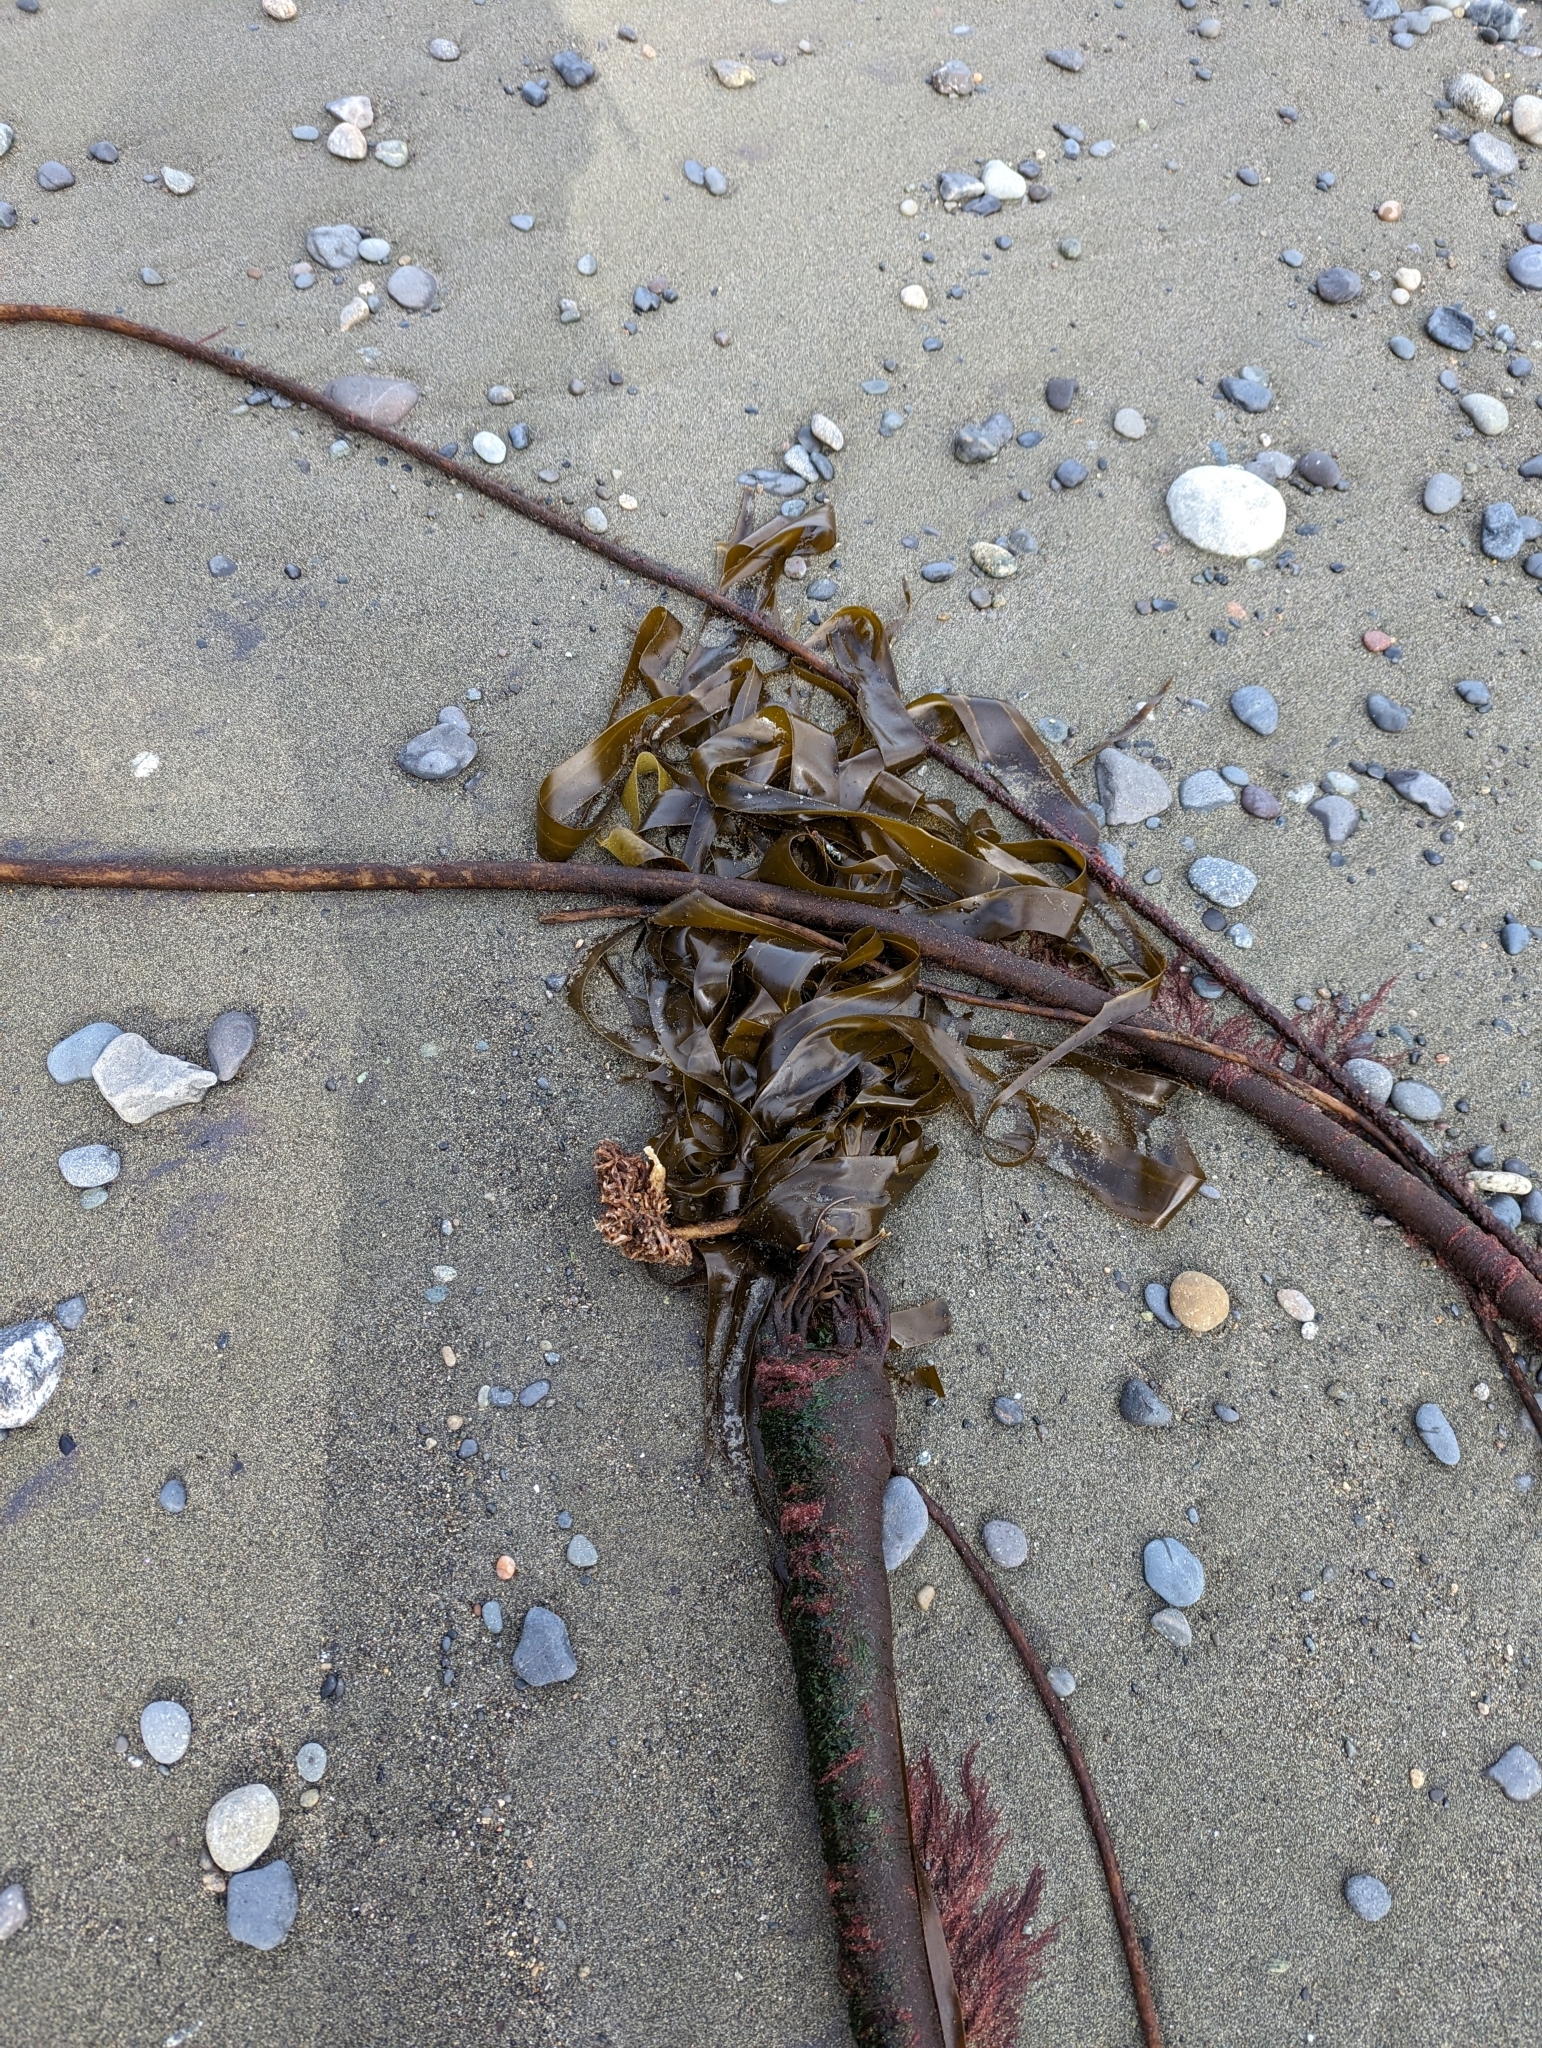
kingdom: Chromista
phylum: Ochrophyta
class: Phaeophyceae
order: Laminariales
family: Laminariaceae
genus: Nereocystis
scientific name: Nereocystis luetkeana
